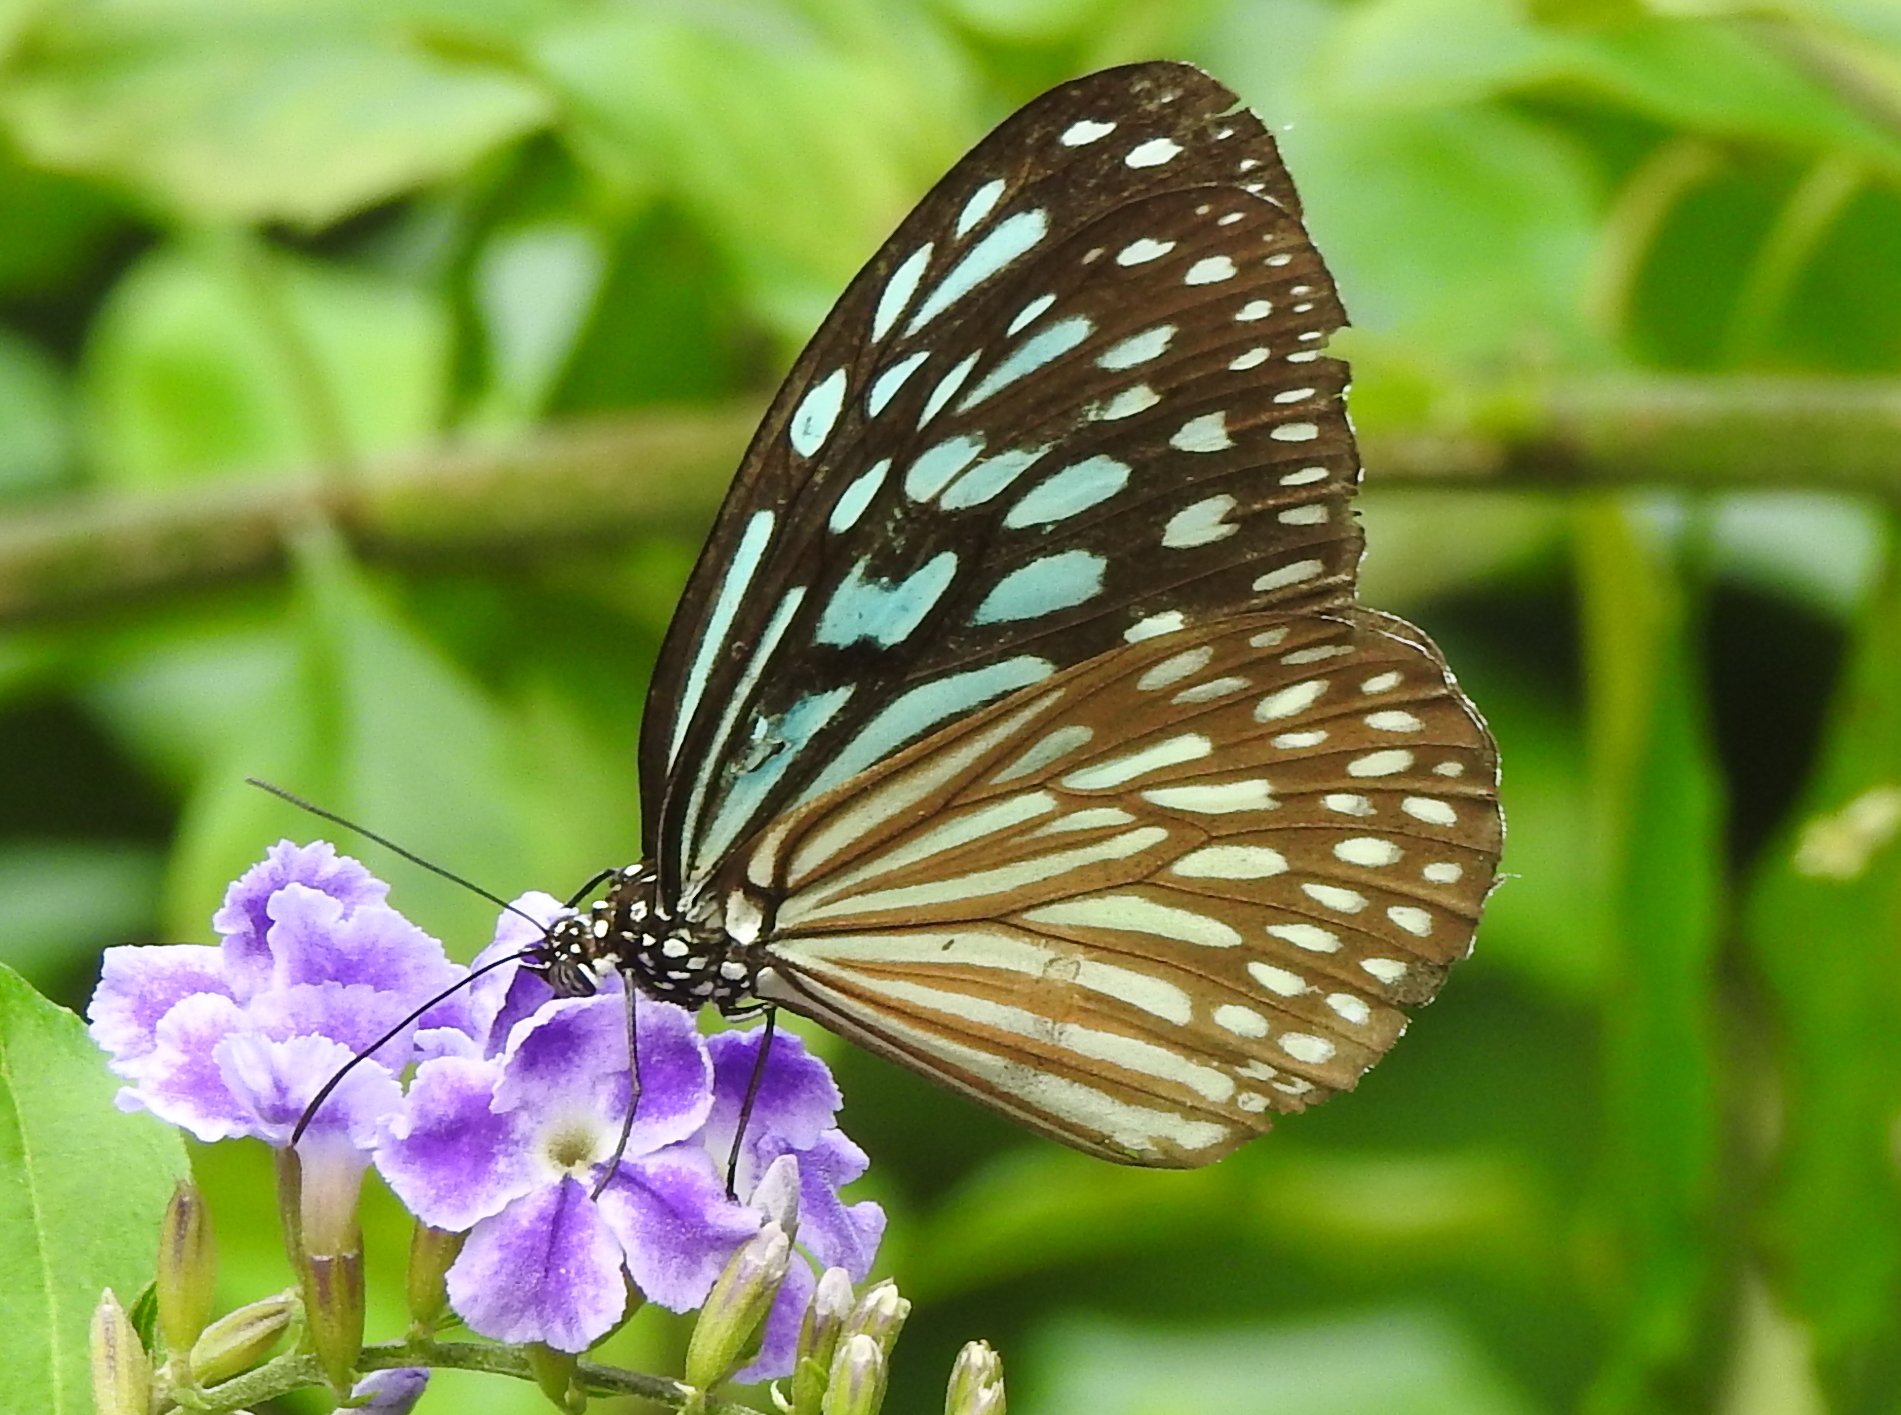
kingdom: Animalia
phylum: Arthropoda
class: Insecta
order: Lepidoptera
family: Nymphalidae
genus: Ideopsis
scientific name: Ideopsis similis
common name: Ceylon blue glassy tiger
